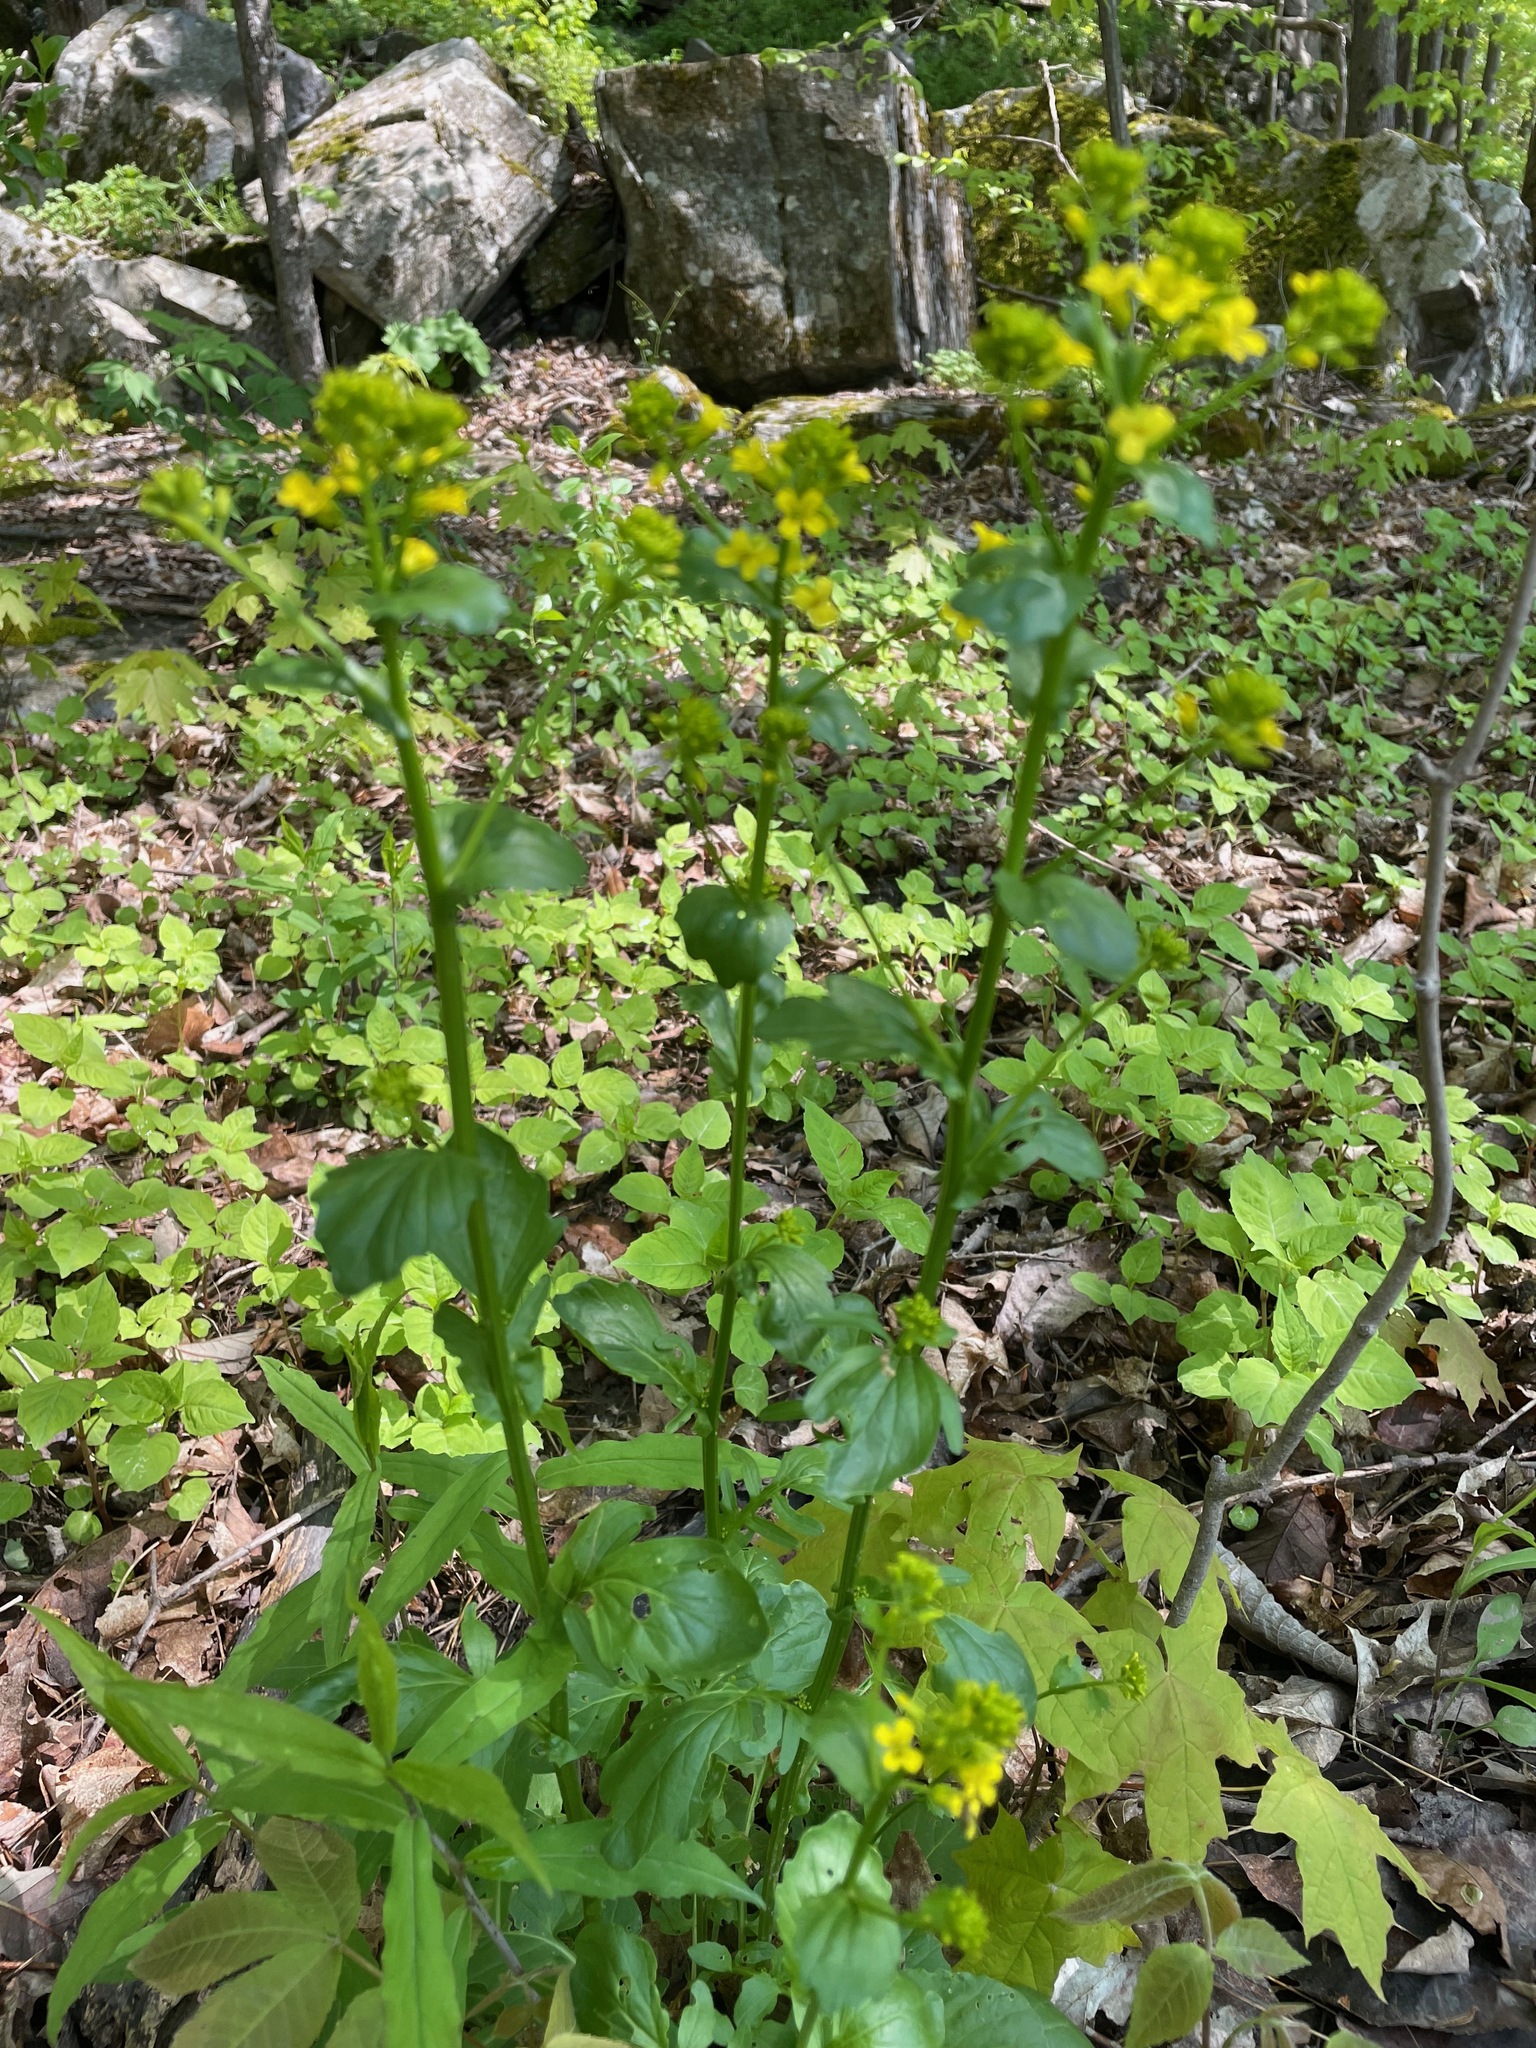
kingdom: Plantae
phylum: Tracheophyta
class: Magnoliopsida
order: Brassicales
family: Brassicaceae
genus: Barbarea
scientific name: Barbarea vulgaris
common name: Cressy-greens
